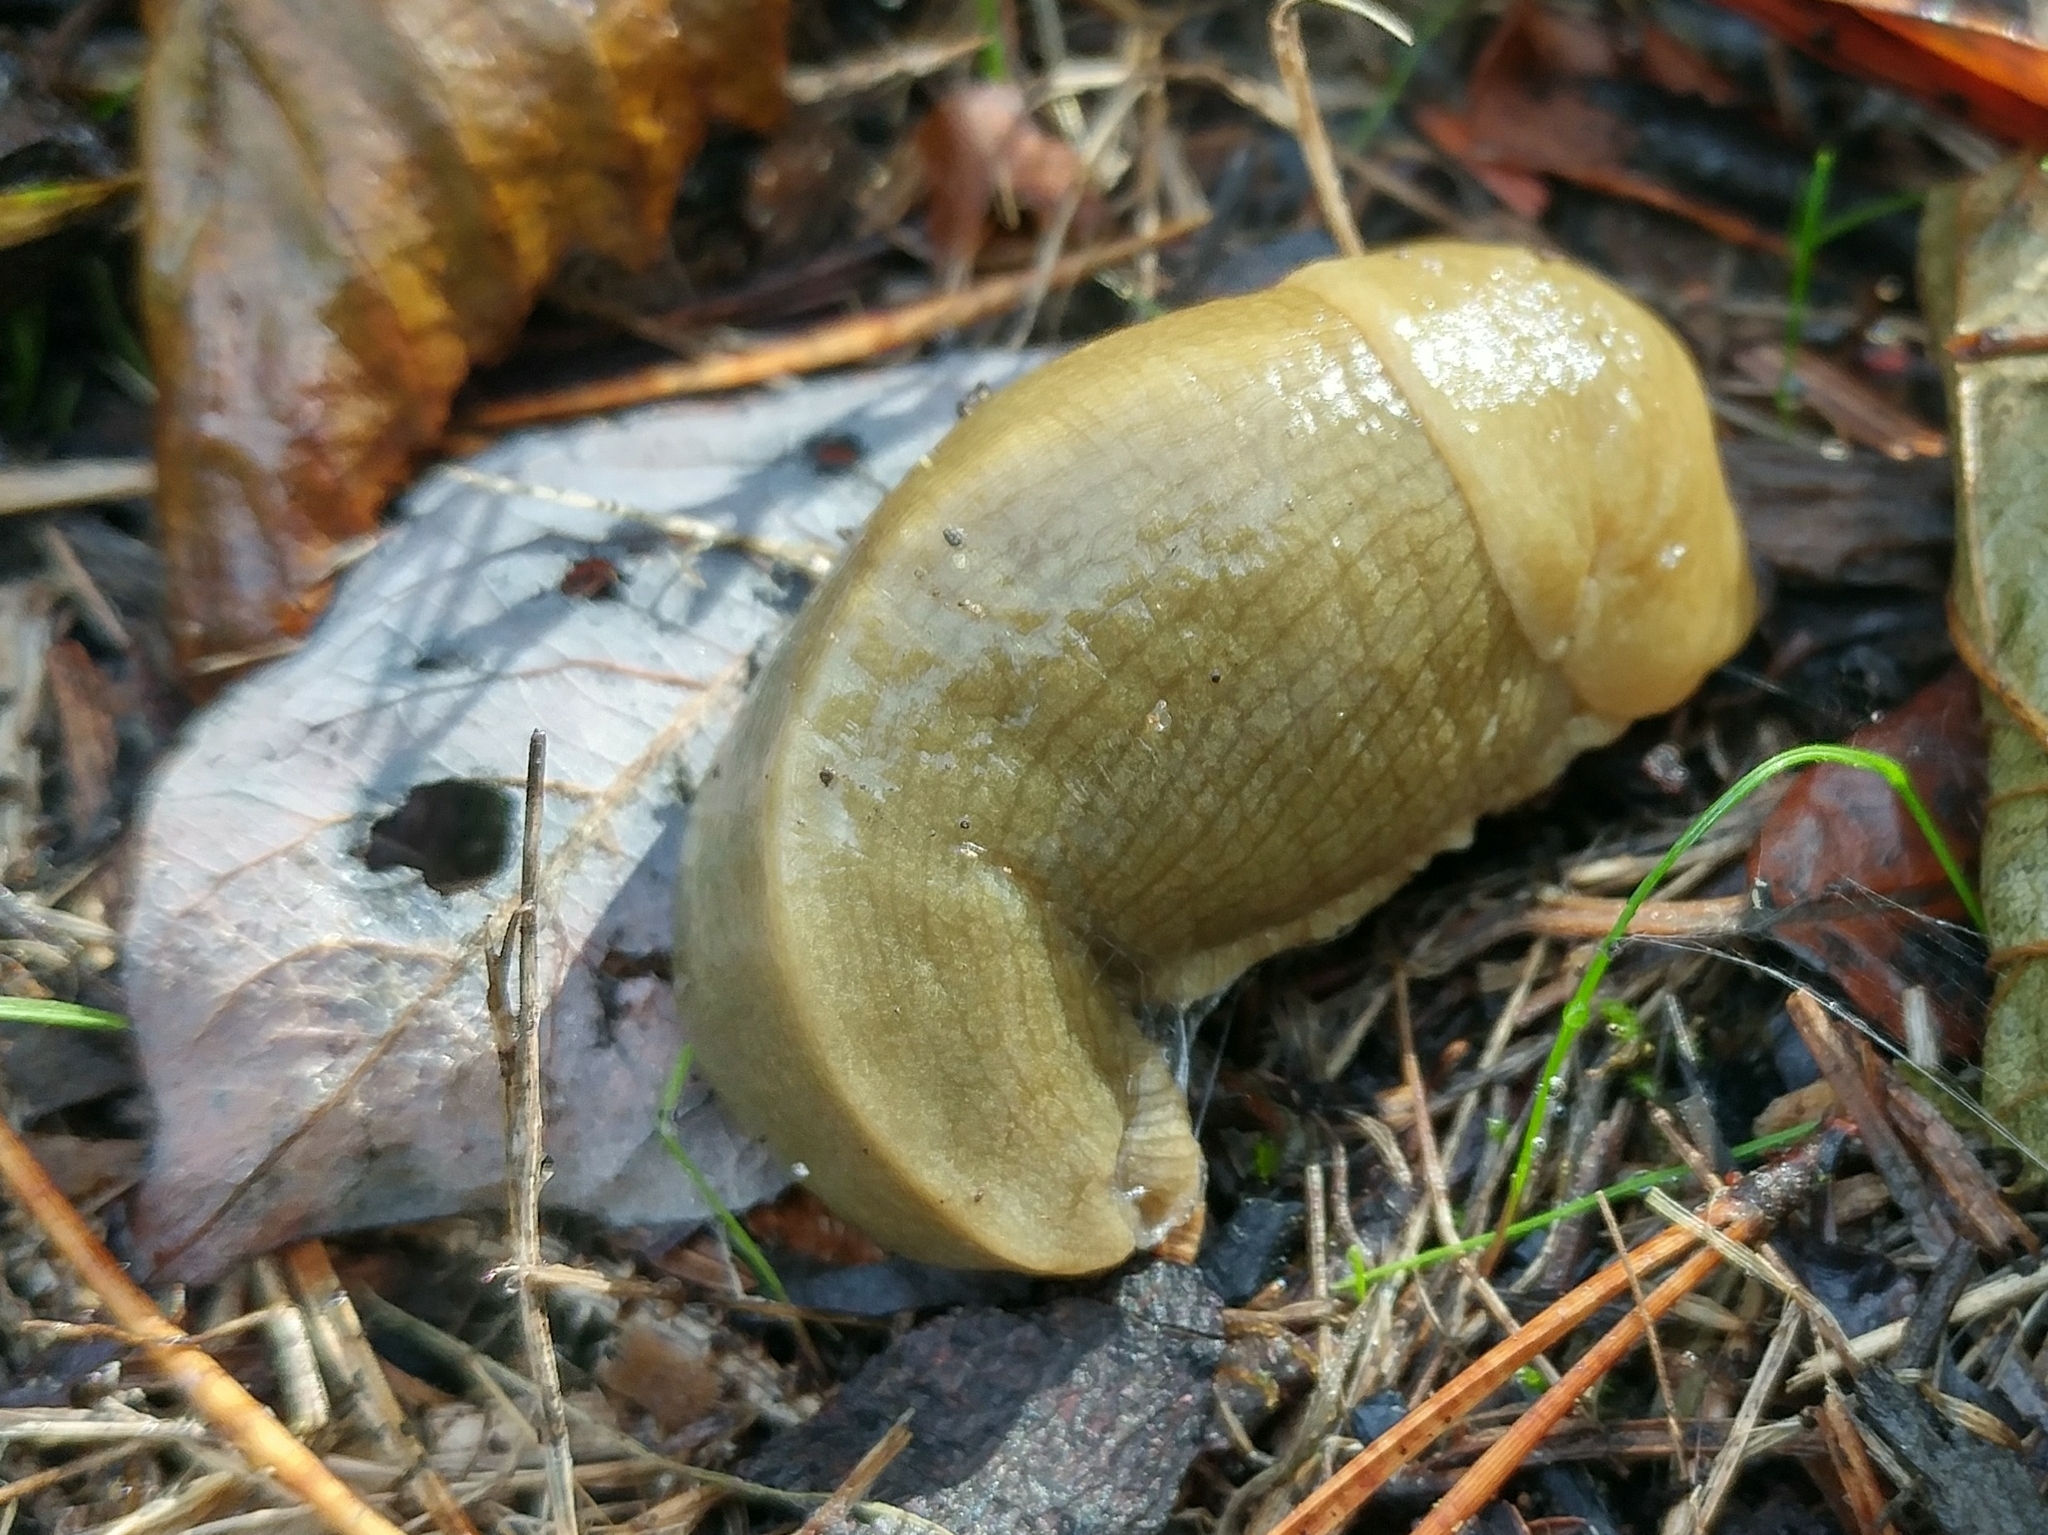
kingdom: Animalia
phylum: Mollusca
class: Gastropoda
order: Stylommatophora
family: Ariolimacidae
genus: Ariolimax
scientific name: Ariolimax columbianus
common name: Pacific banana slug
